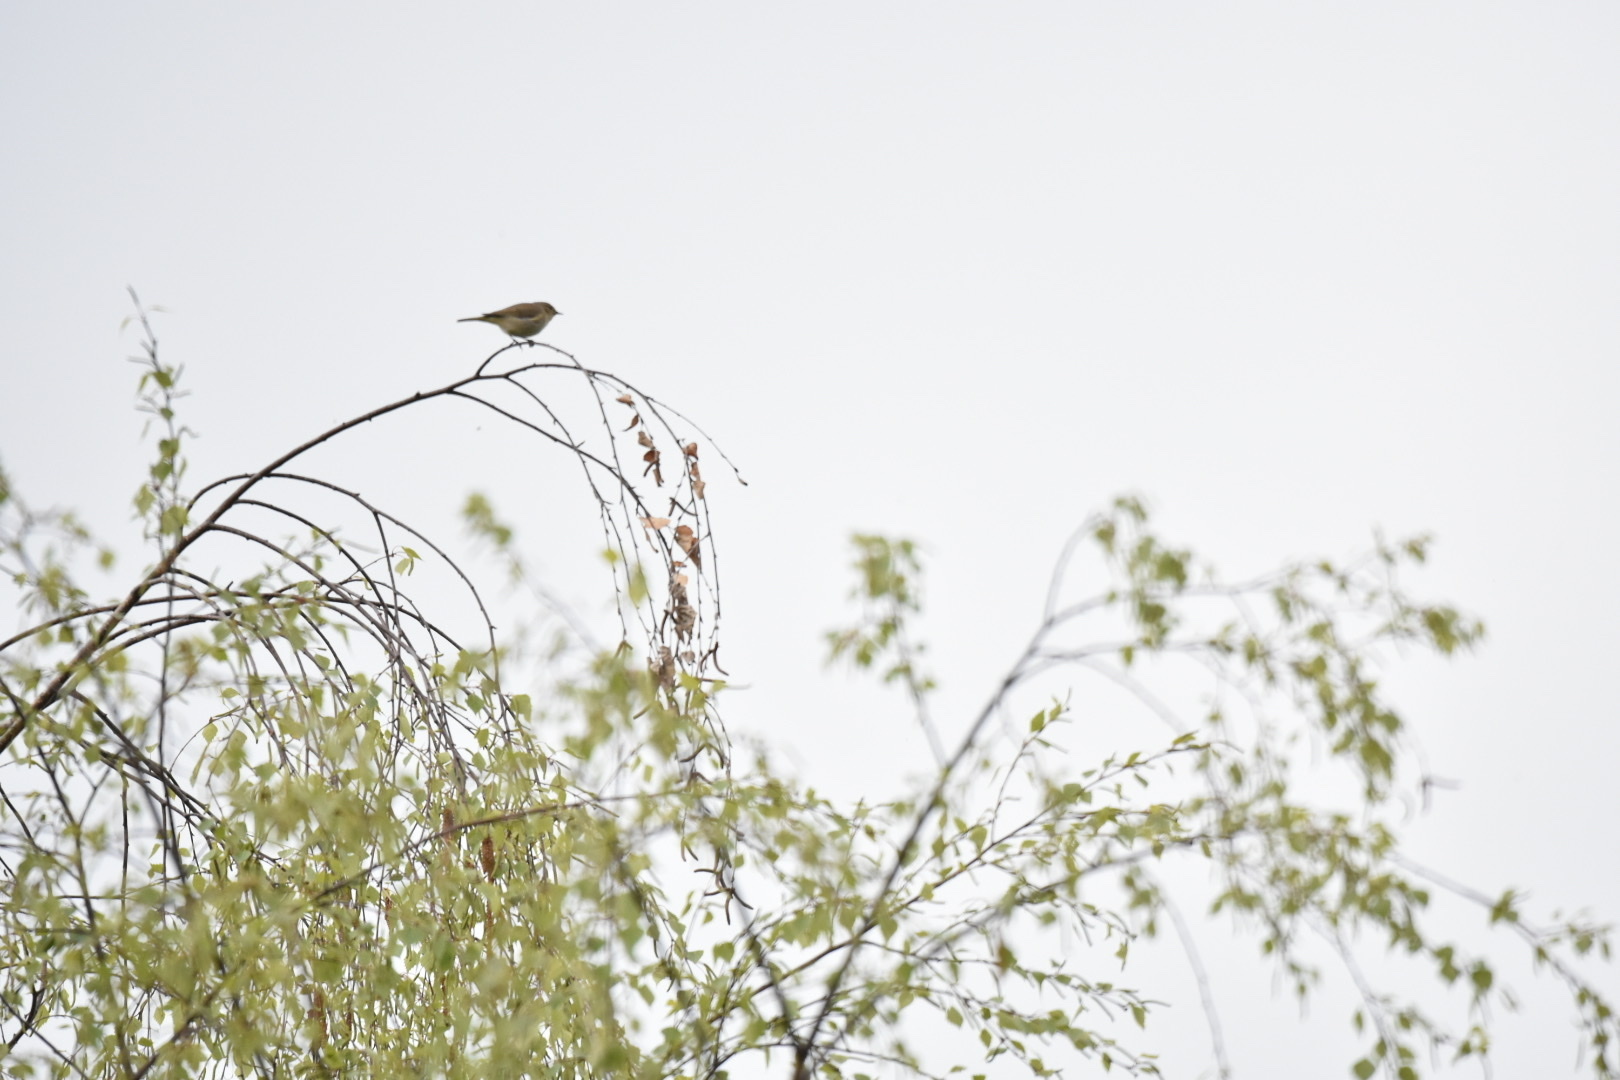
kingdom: Animalia
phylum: Chordata
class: Aves
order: Passeriformes
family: Phylloscopidae
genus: Phylloscopus
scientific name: Phylloscopus collybita
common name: Common chiffchaff
